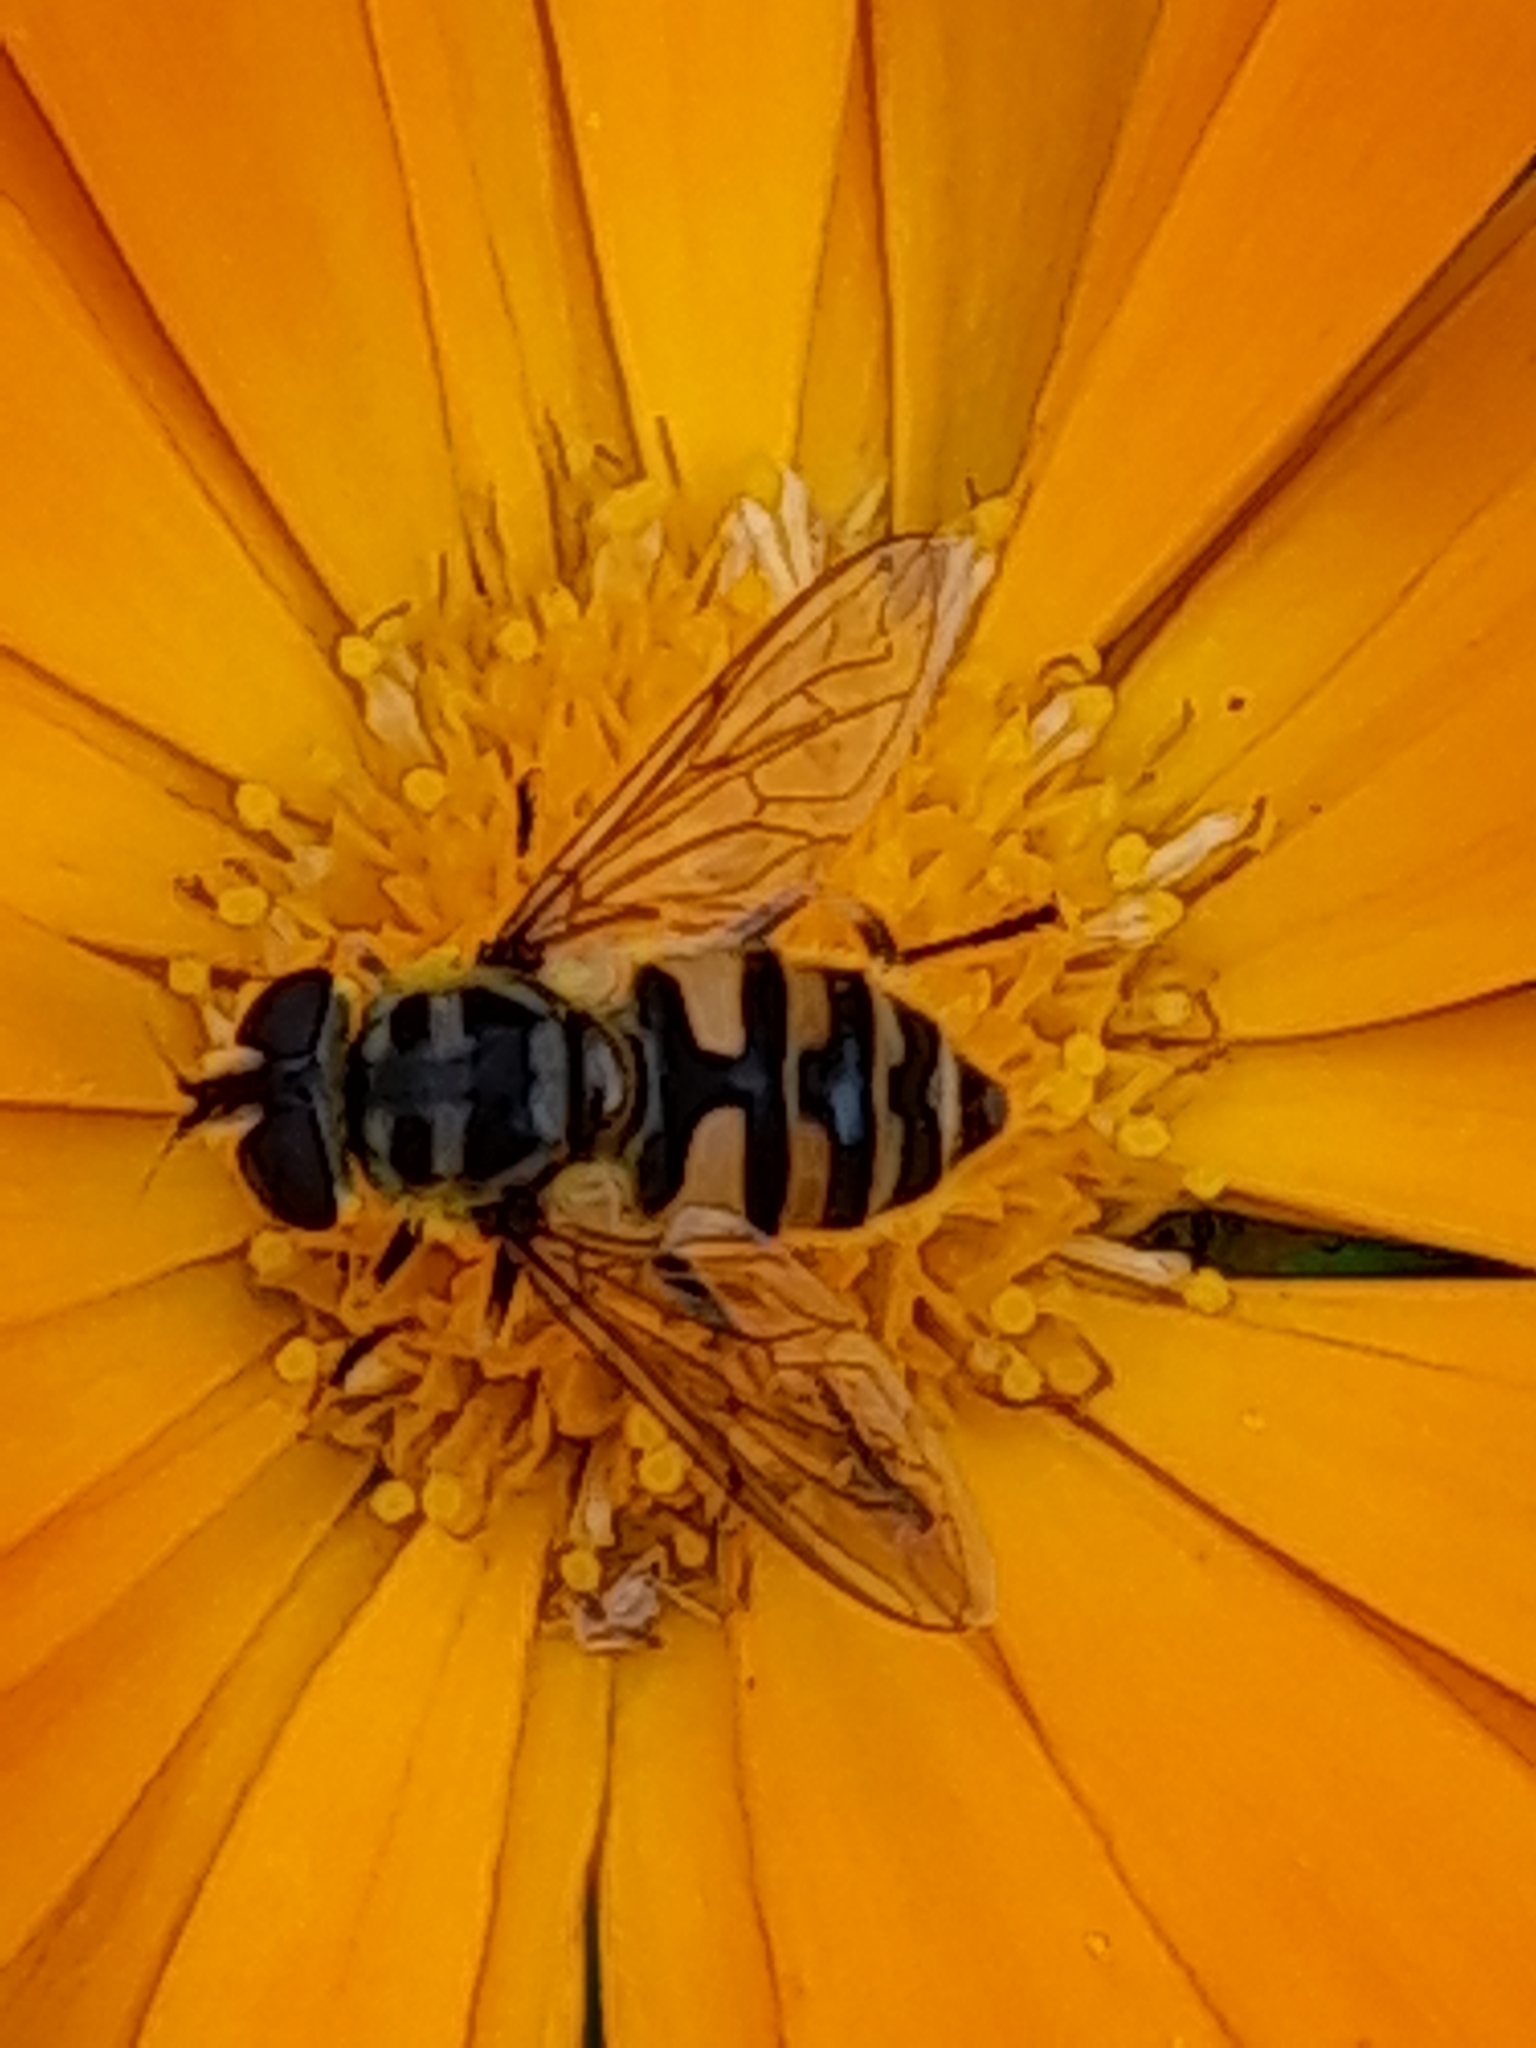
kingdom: Animalia
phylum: Arthropoda
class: Insecta
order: Diptera
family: Syrphidae
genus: Myathropa
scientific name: Myathropa florea
